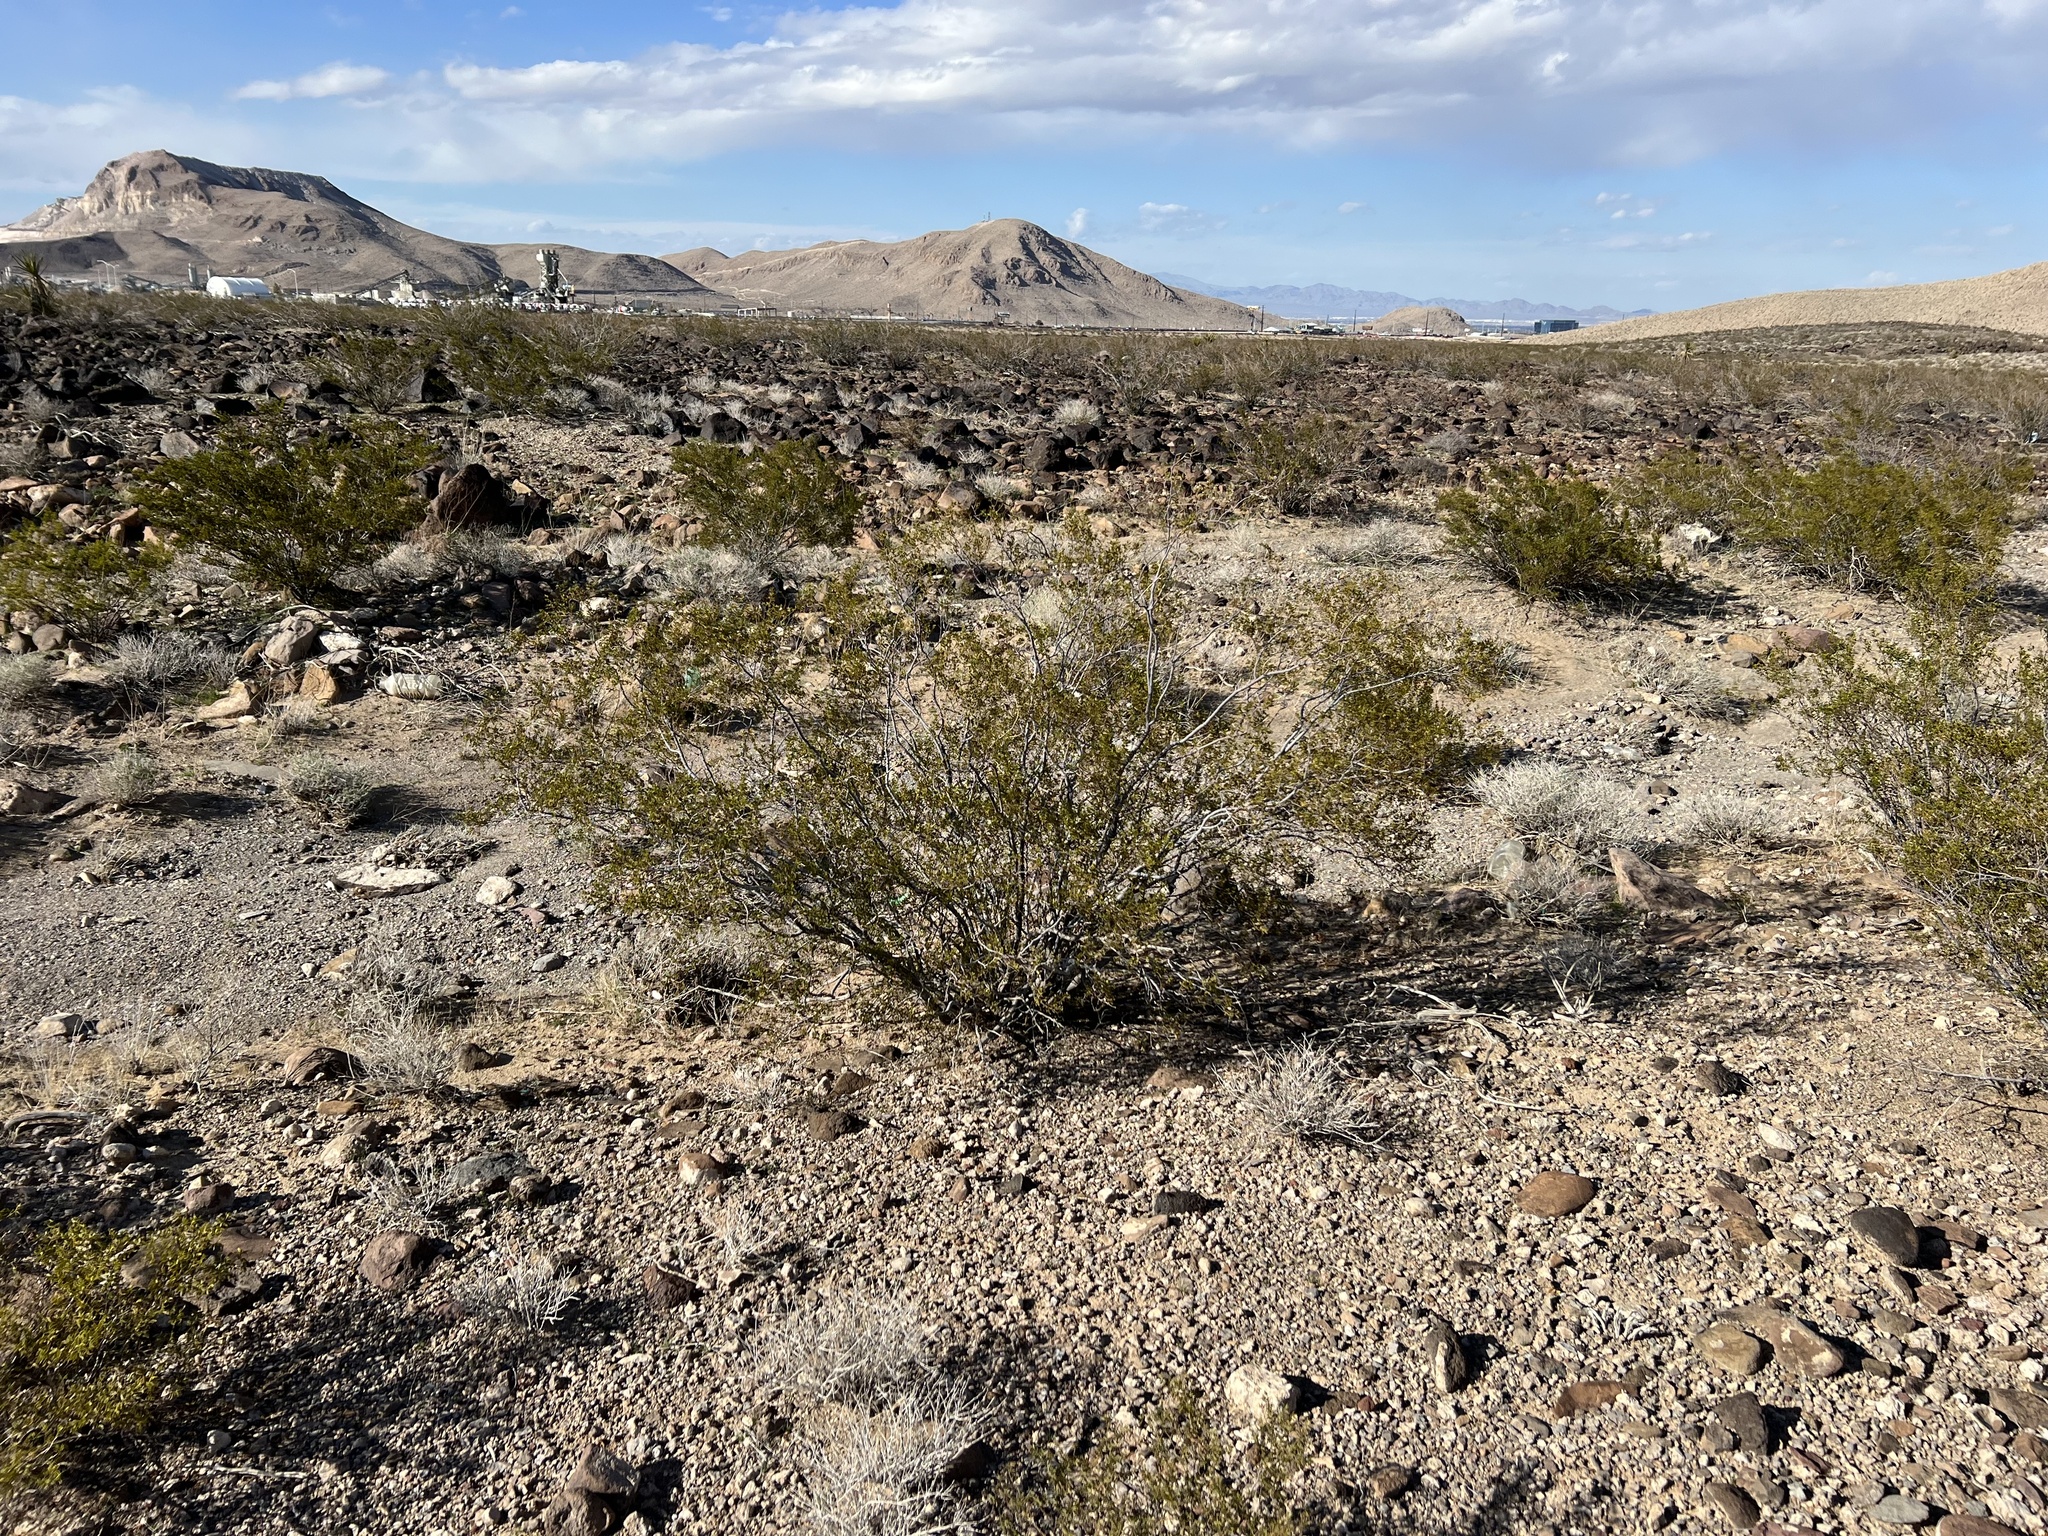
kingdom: Plantae
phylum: Tracheophyta
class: Magnoliopsida
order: Zygophyllales
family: Zygophyllaceae
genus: Larrea
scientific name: Larrea tridentata
